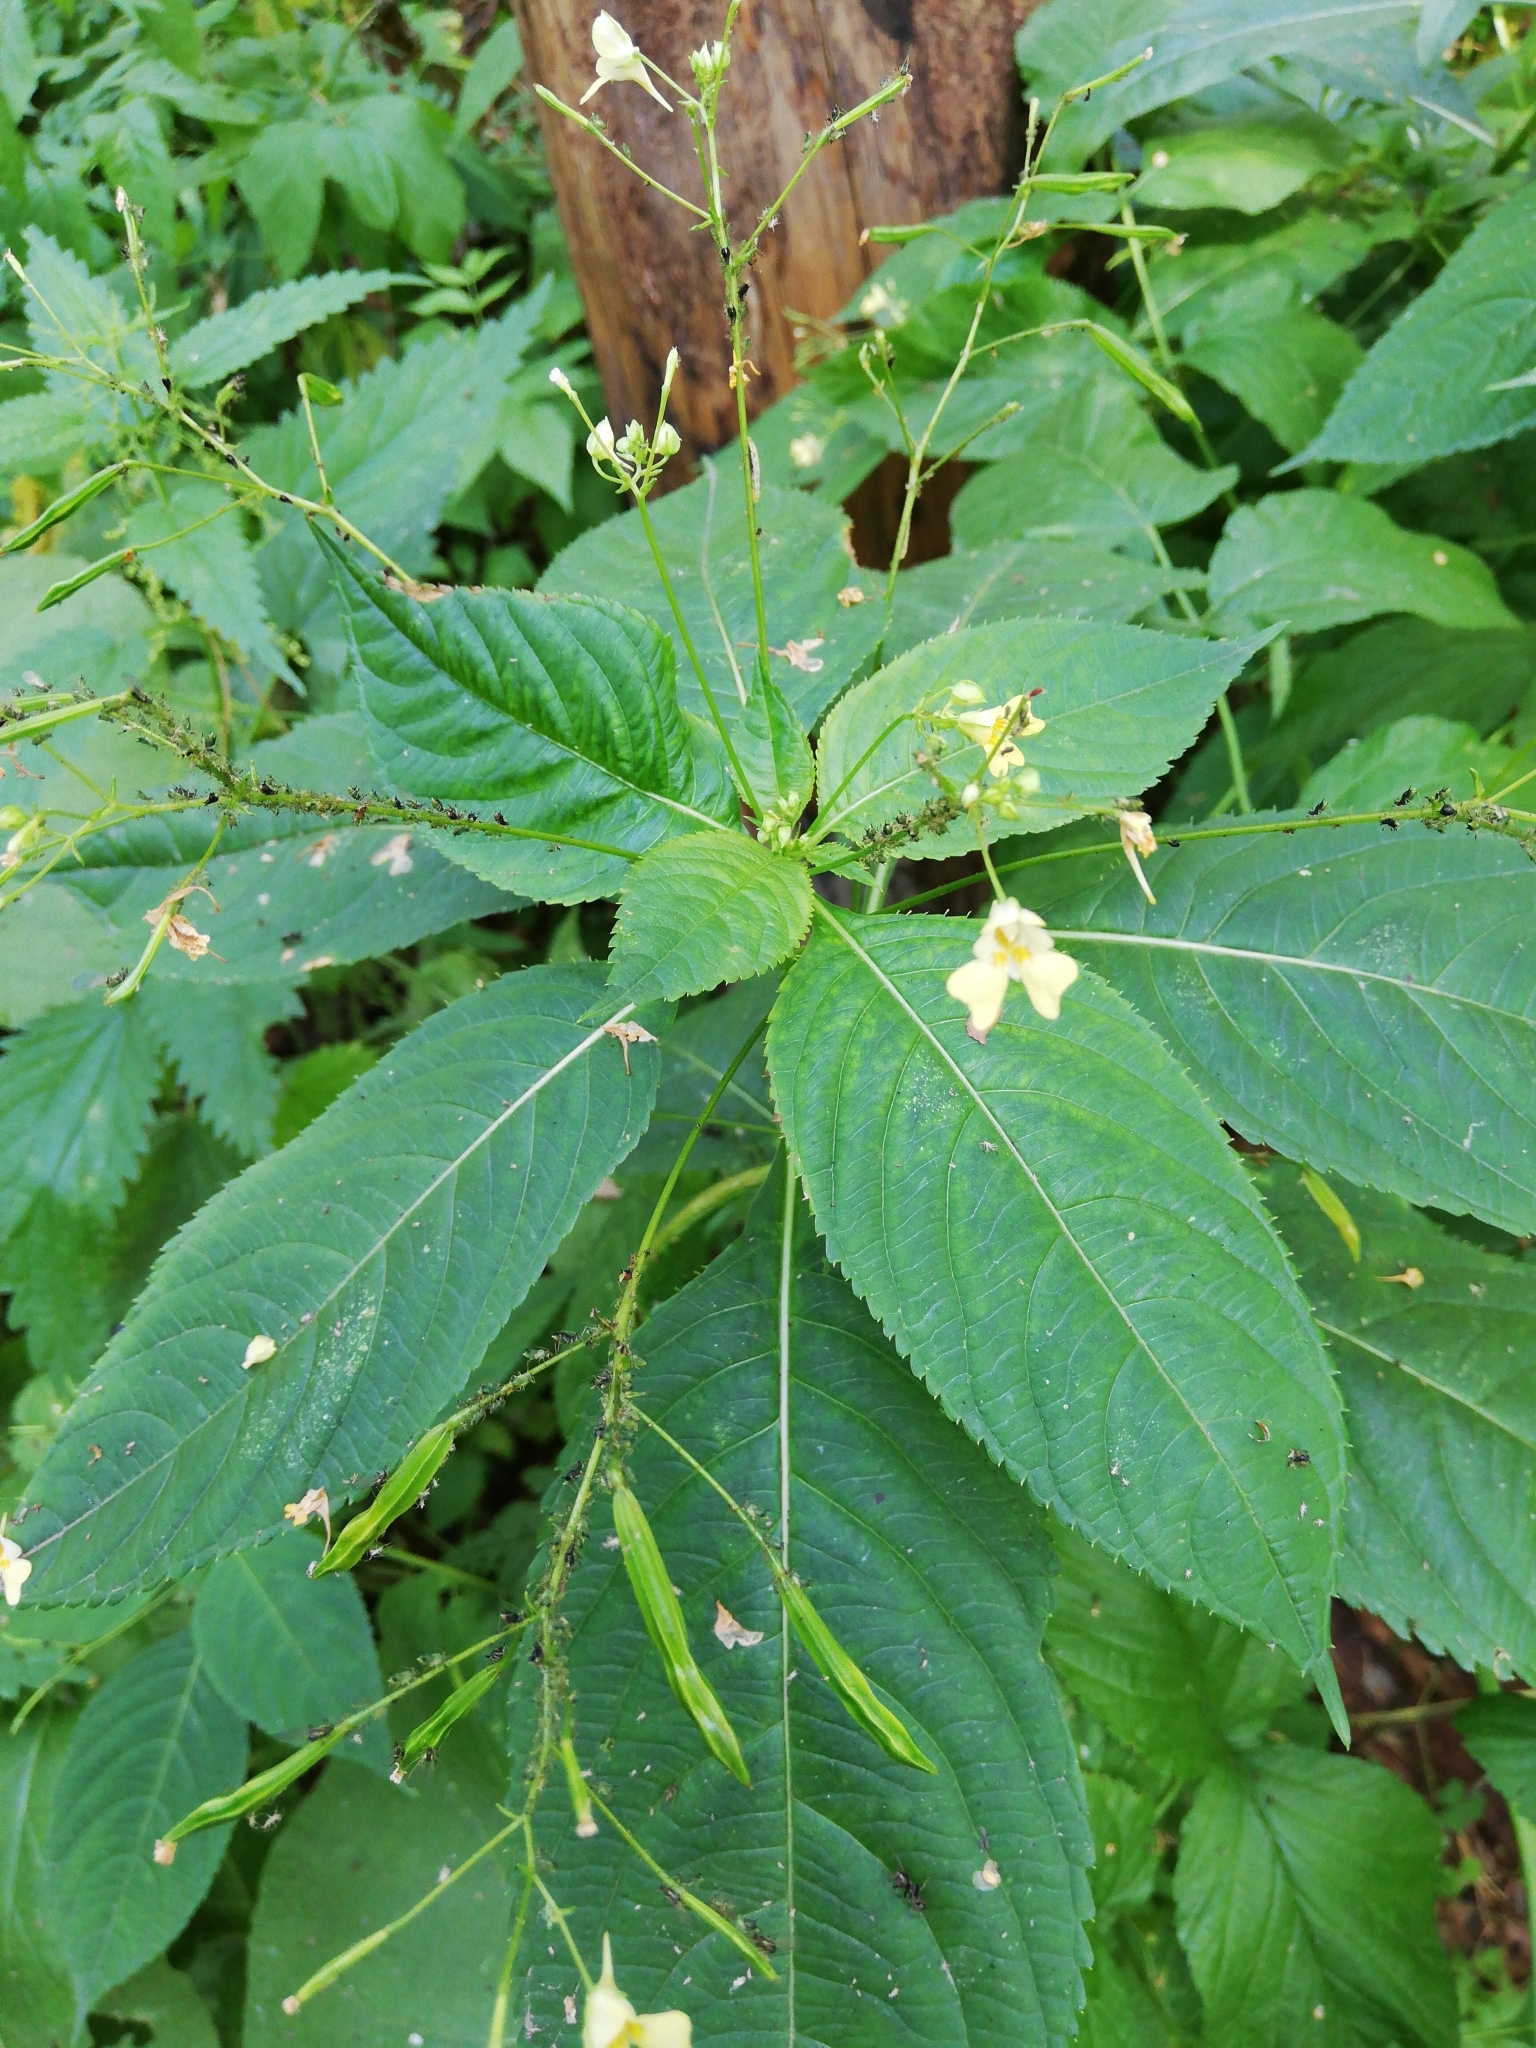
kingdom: Plantae
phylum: Tracheophyta
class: Magnoliopsida
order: Ericales
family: Balsaminaceae
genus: Impatiens
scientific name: Impatiens parviflora
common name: Small balsam
